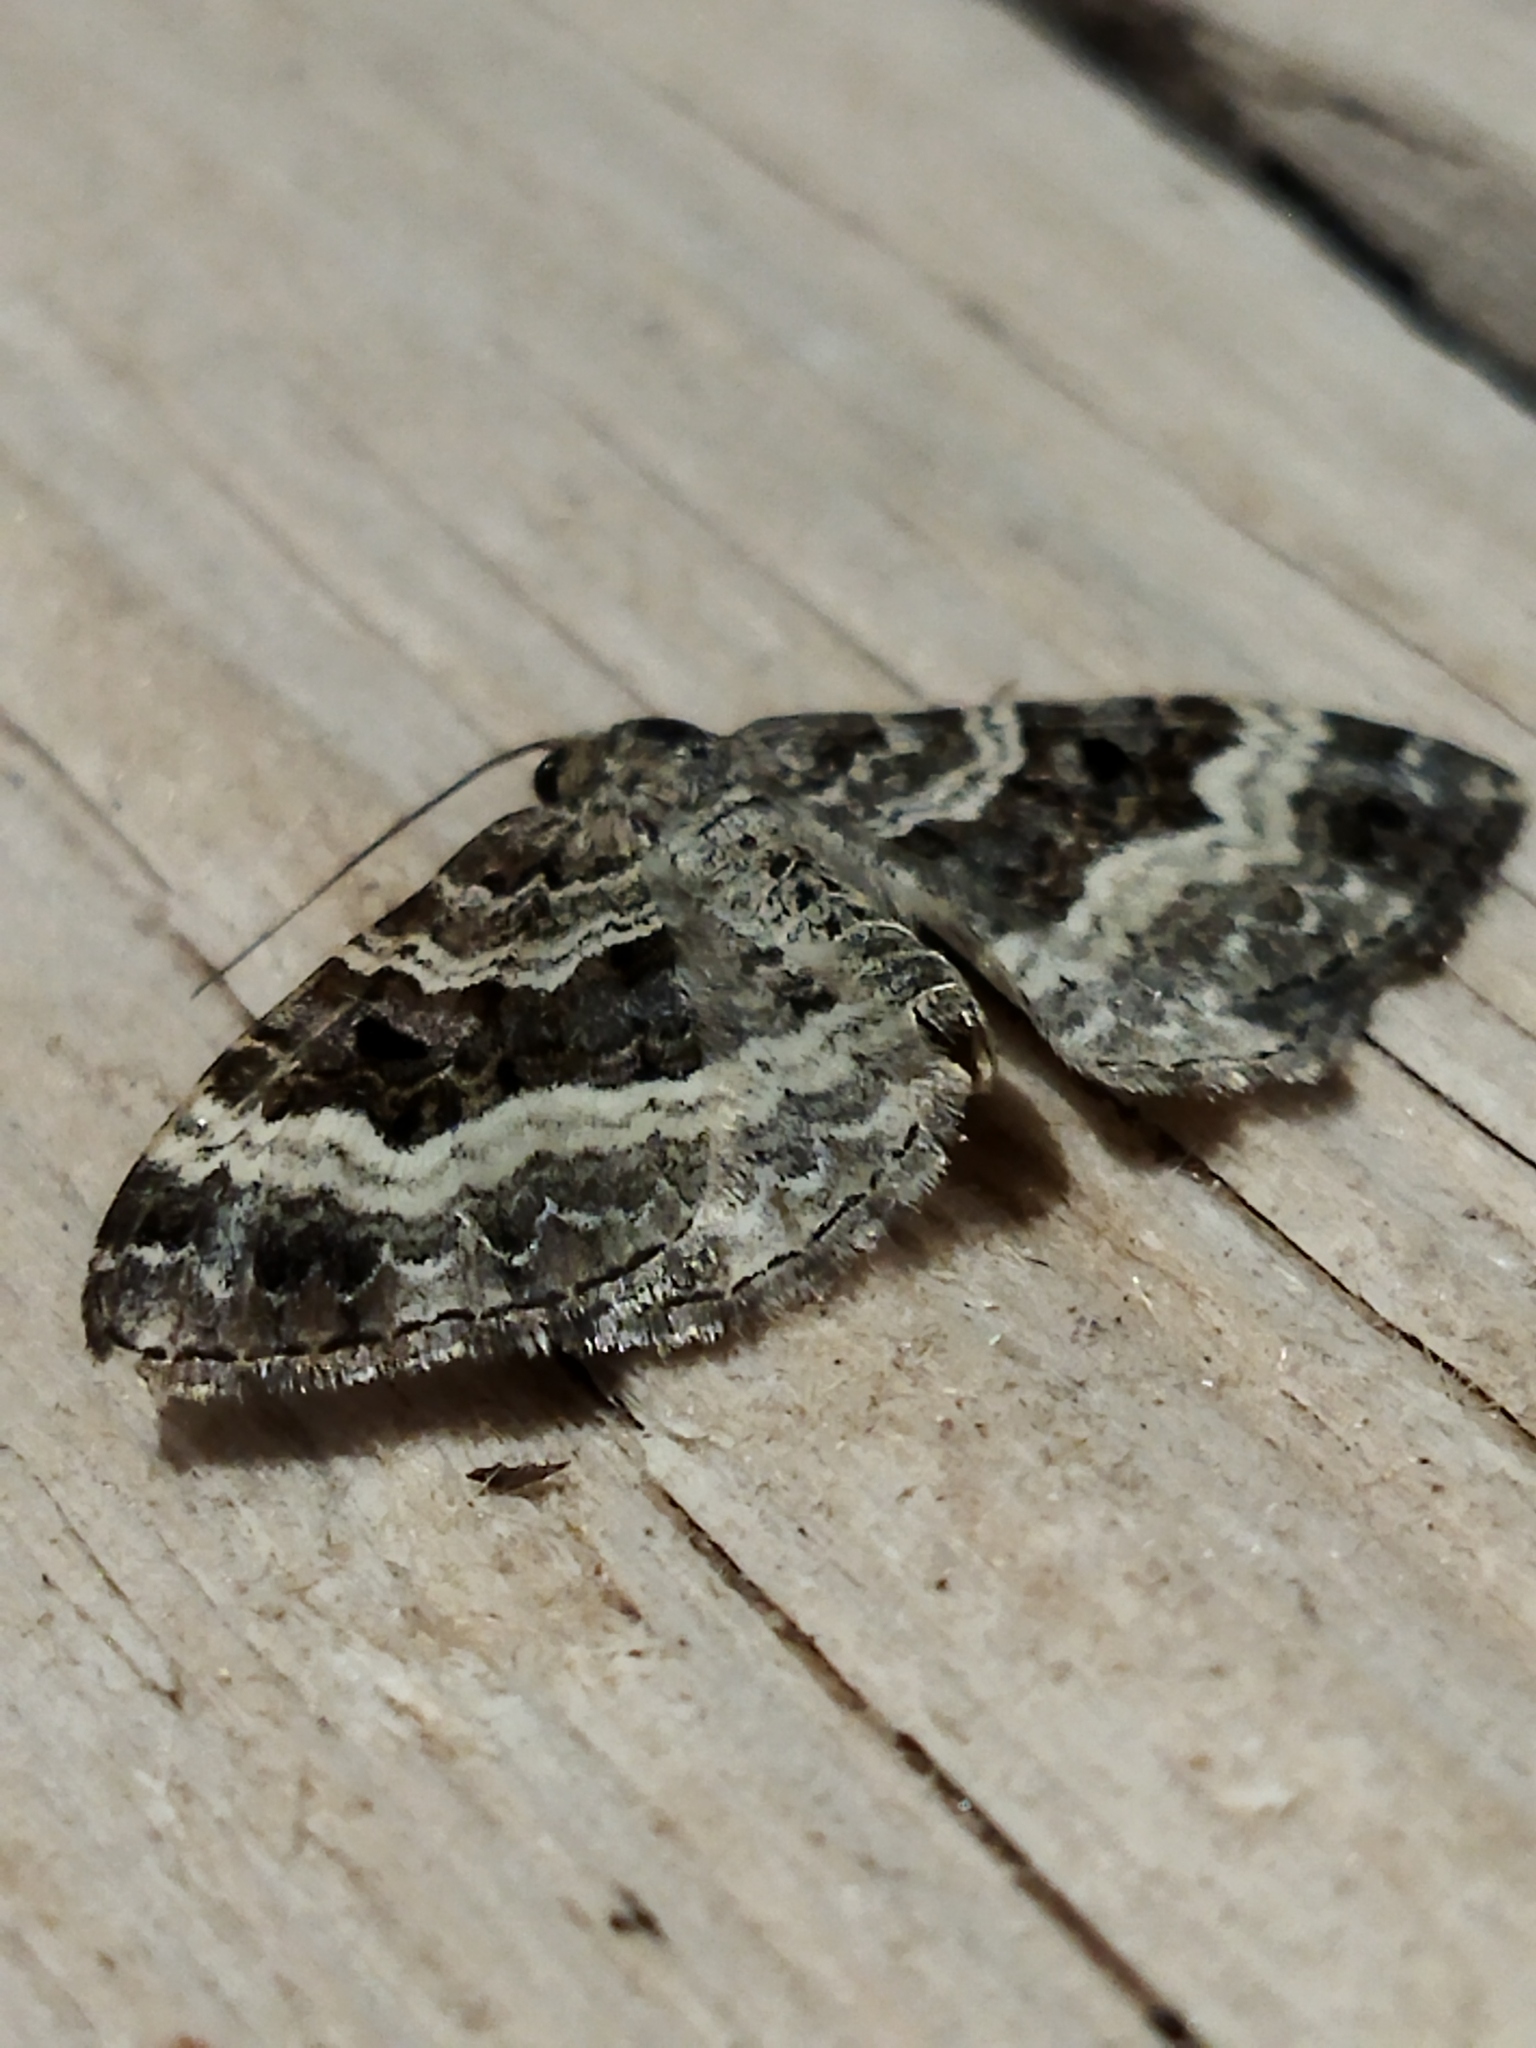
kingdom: Animalia
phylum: Arthropoda
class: Insecta
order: Lepidoptera
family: Geometridae
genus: Epirrhoe
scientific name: Epirrhoe alternata
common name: Common carpet
